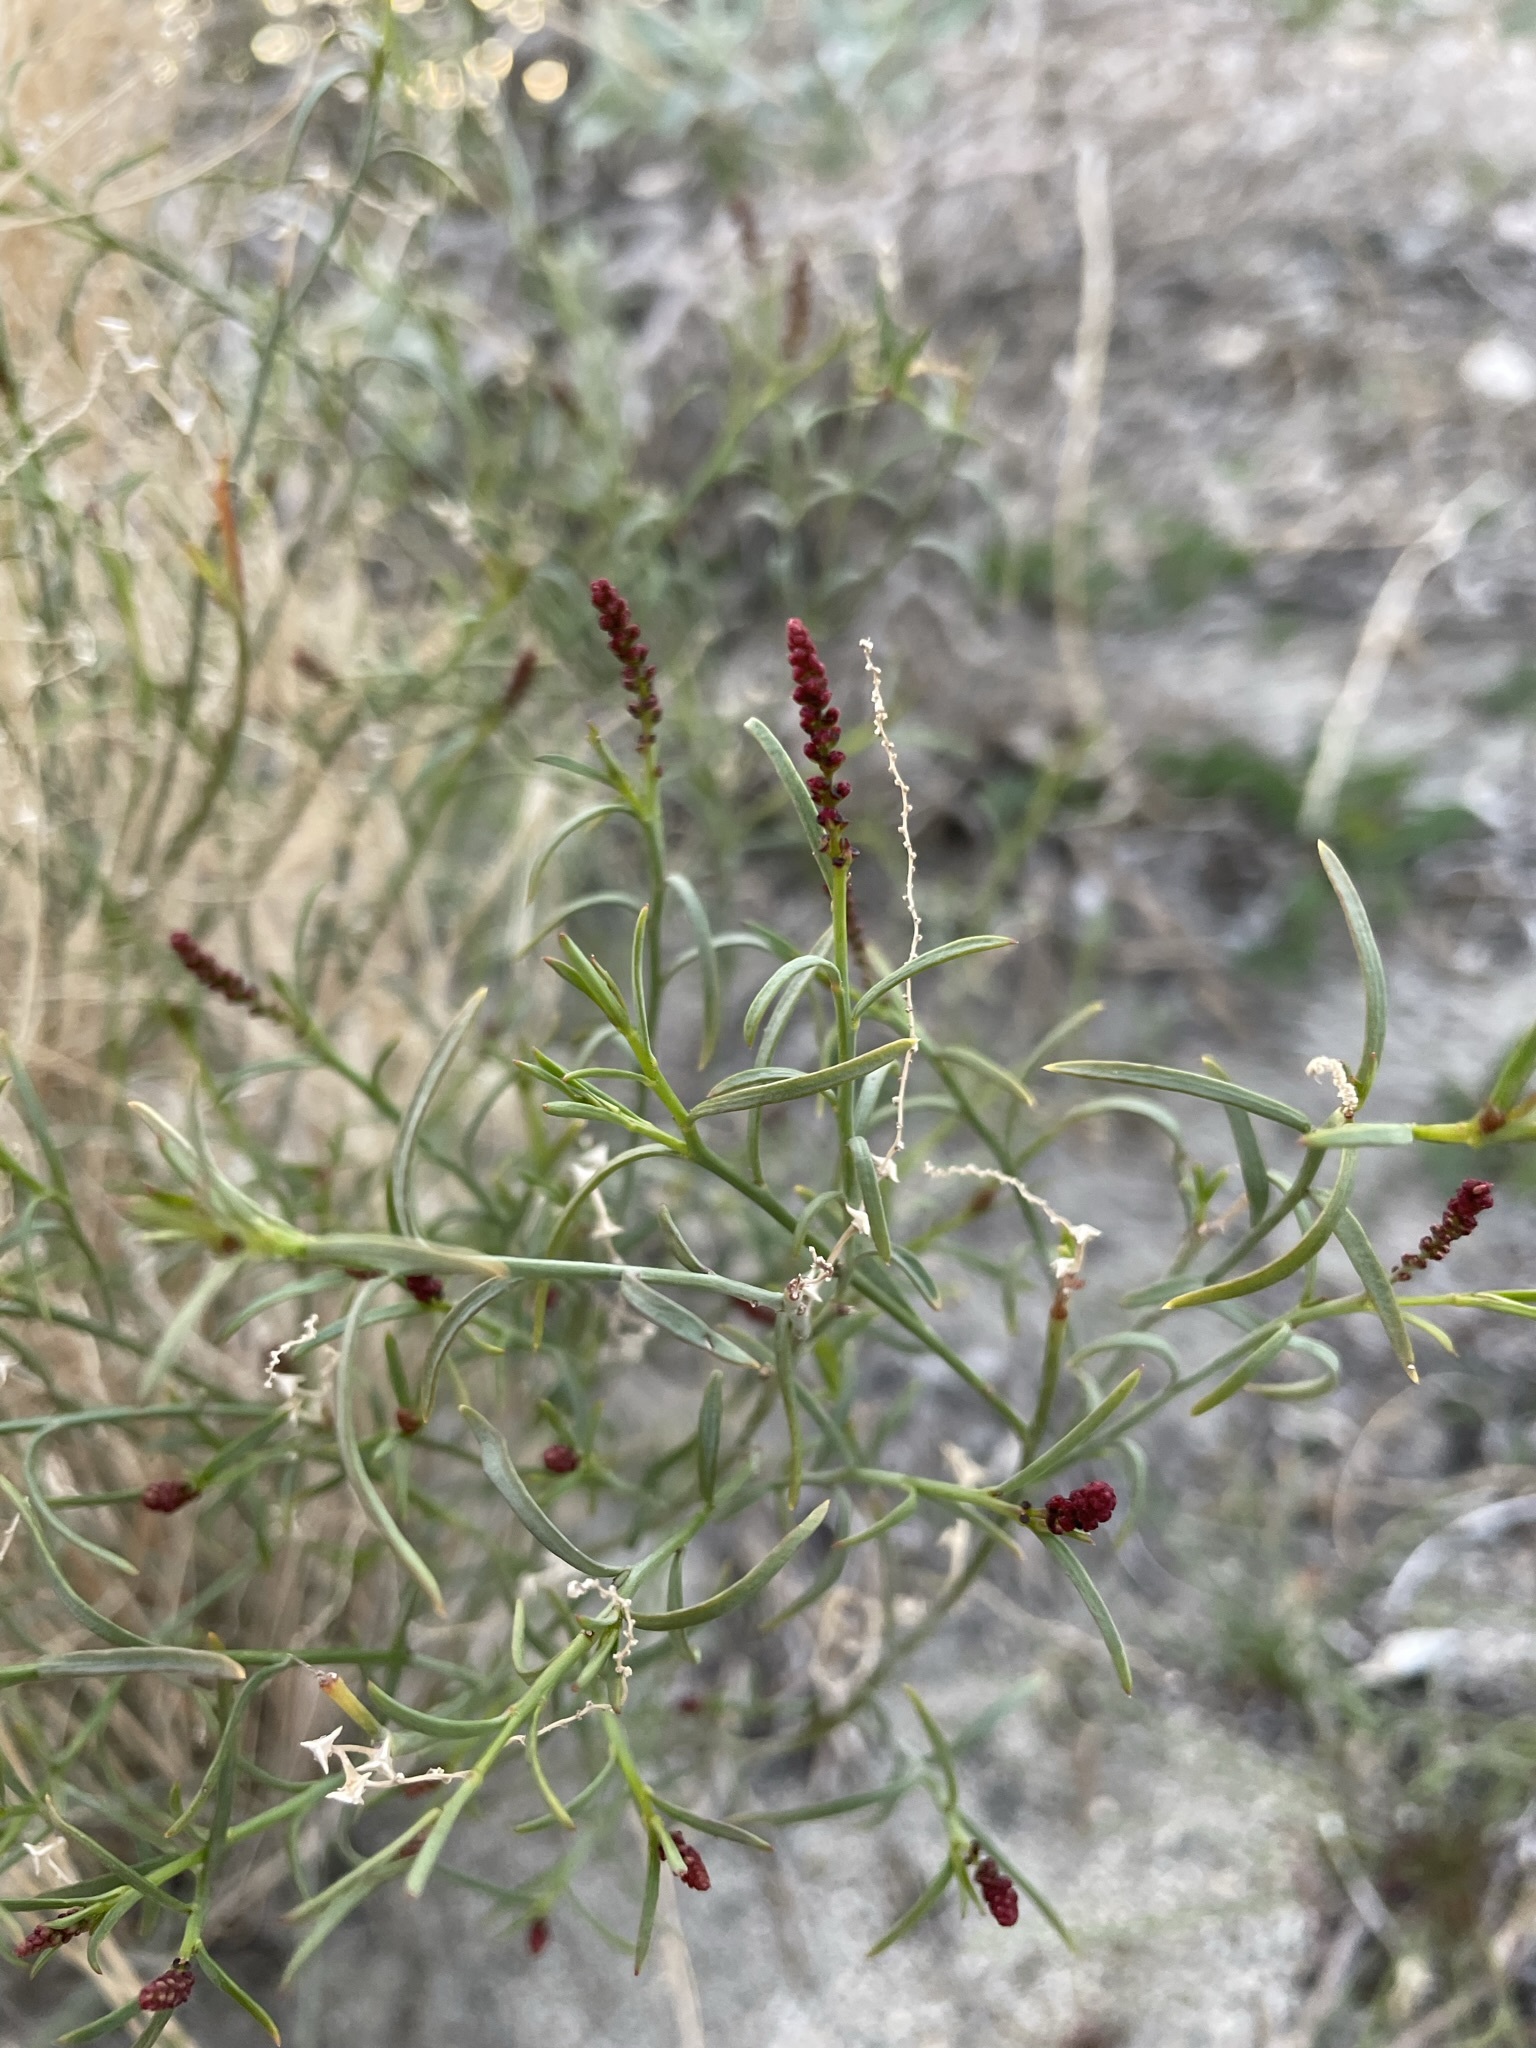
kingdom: Plantae
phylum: Tracheophyta
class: Magnoliopsida
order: Malpighiales
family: Euphorbiaceae
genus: Stillingia
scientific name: Stillingia linearifolia
